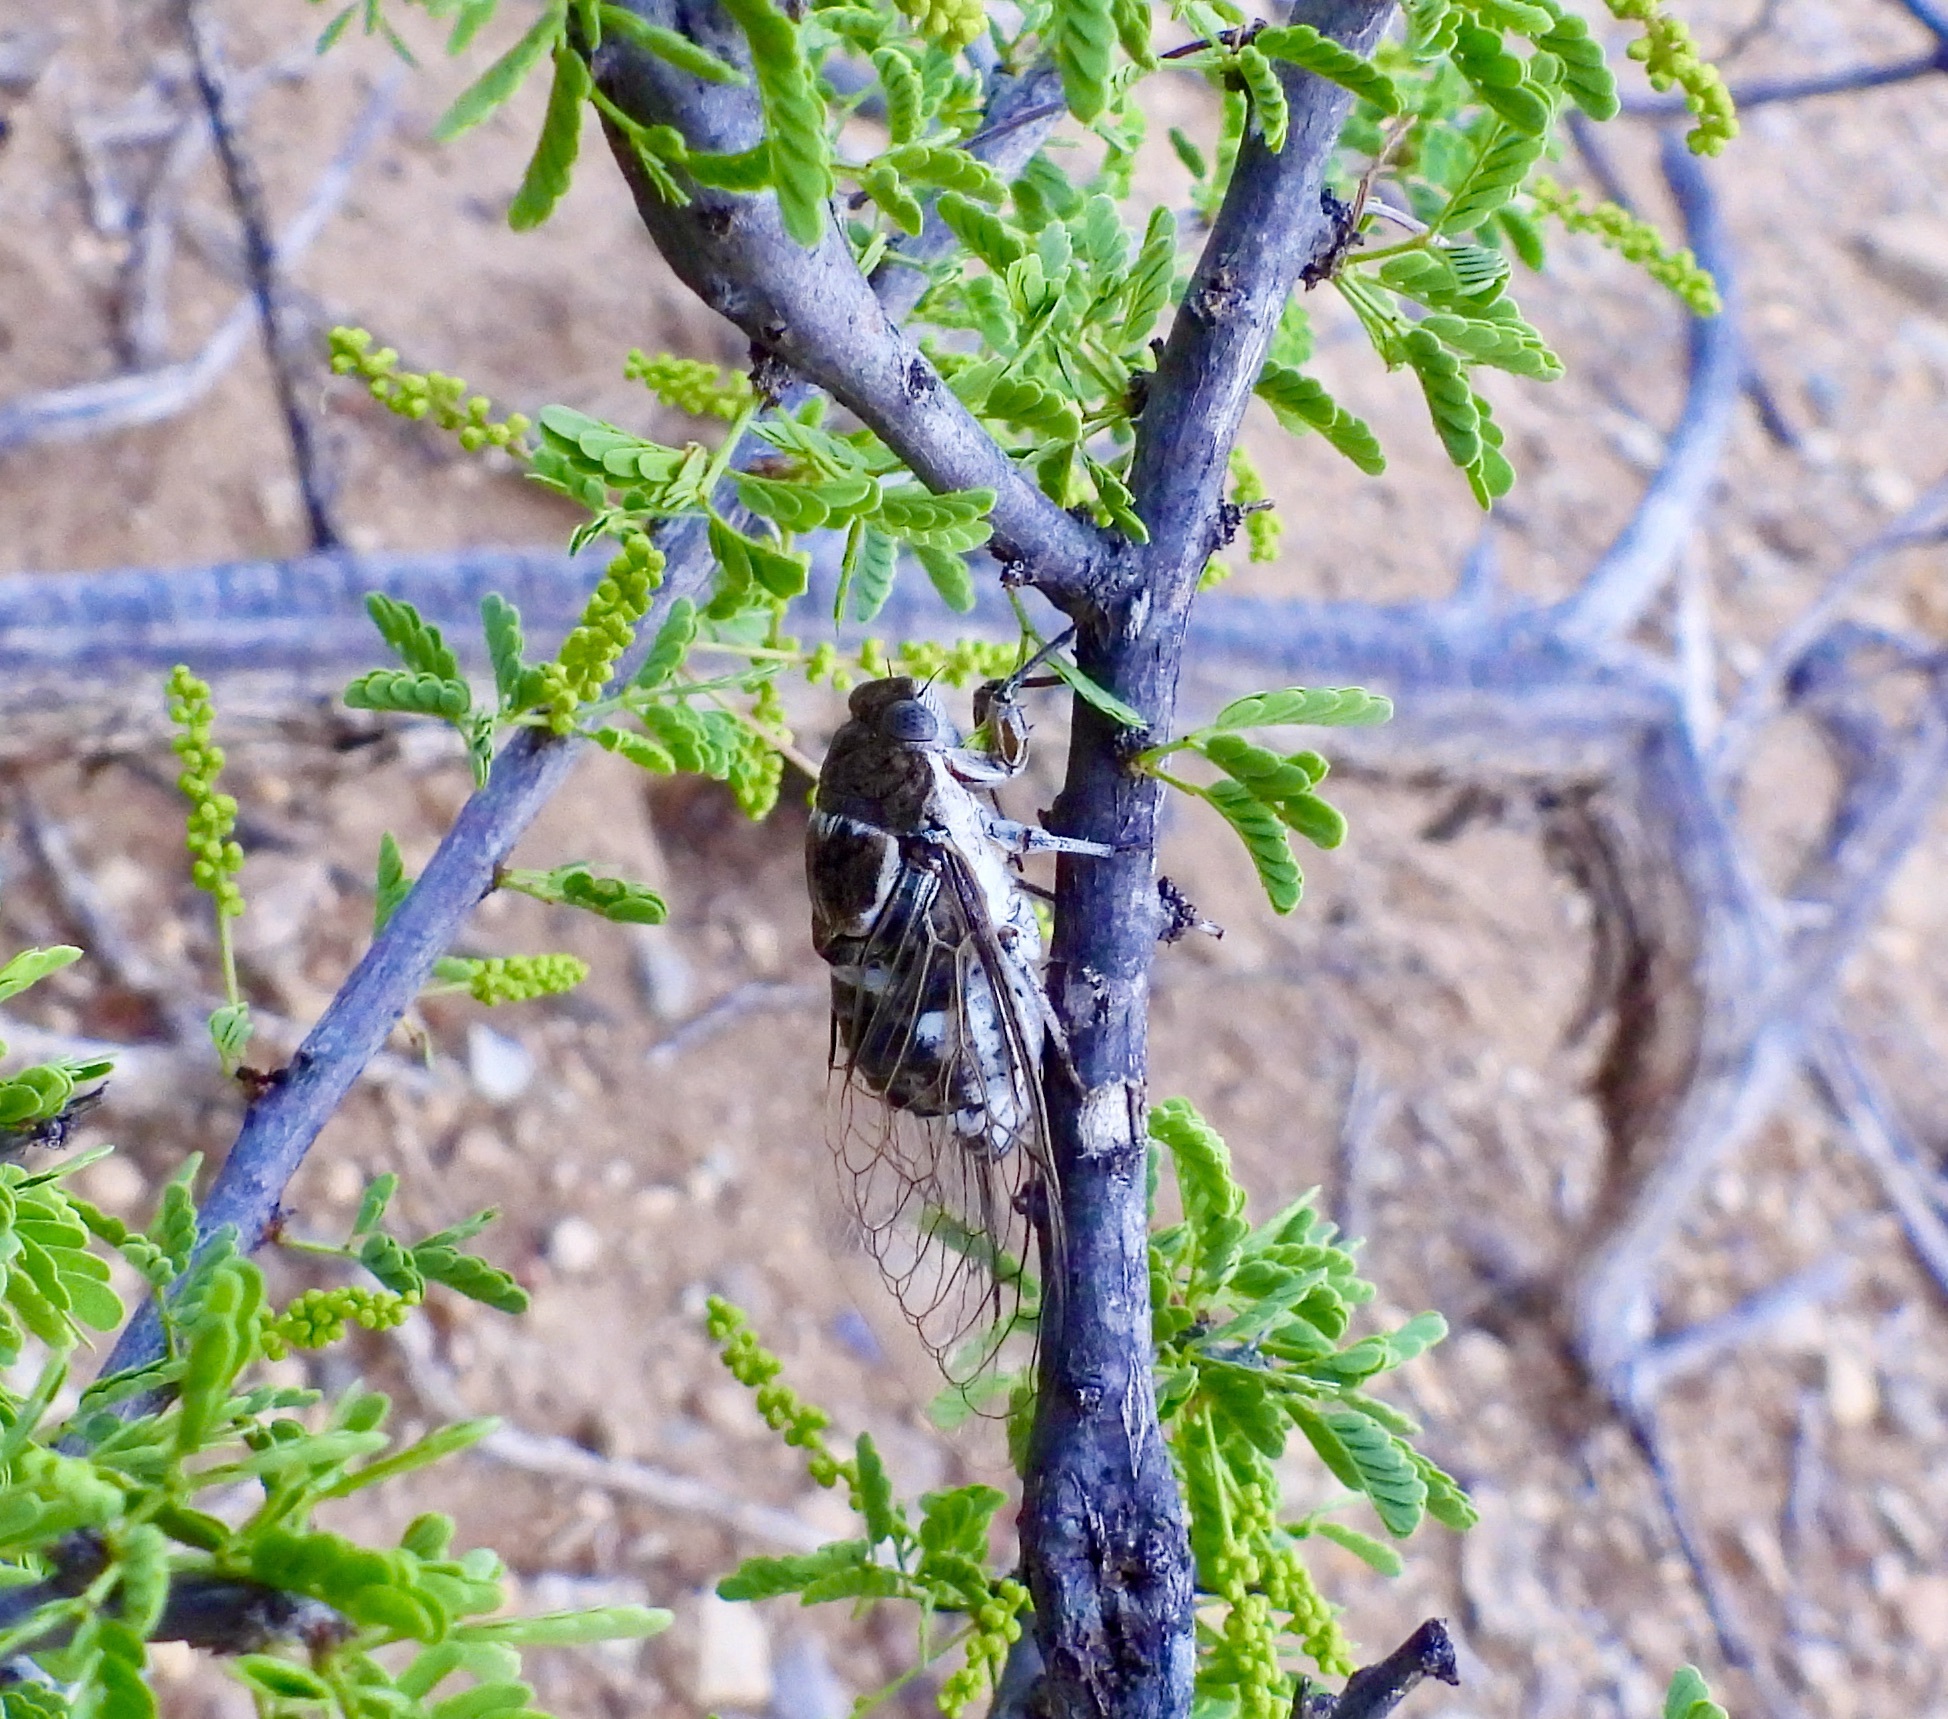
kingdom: Animalia
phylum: Arthropoda
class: Insecta
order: Hemiptera
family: Cicadidae
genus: Cacama
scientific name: Cacama valvata
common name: Cactus dodger
